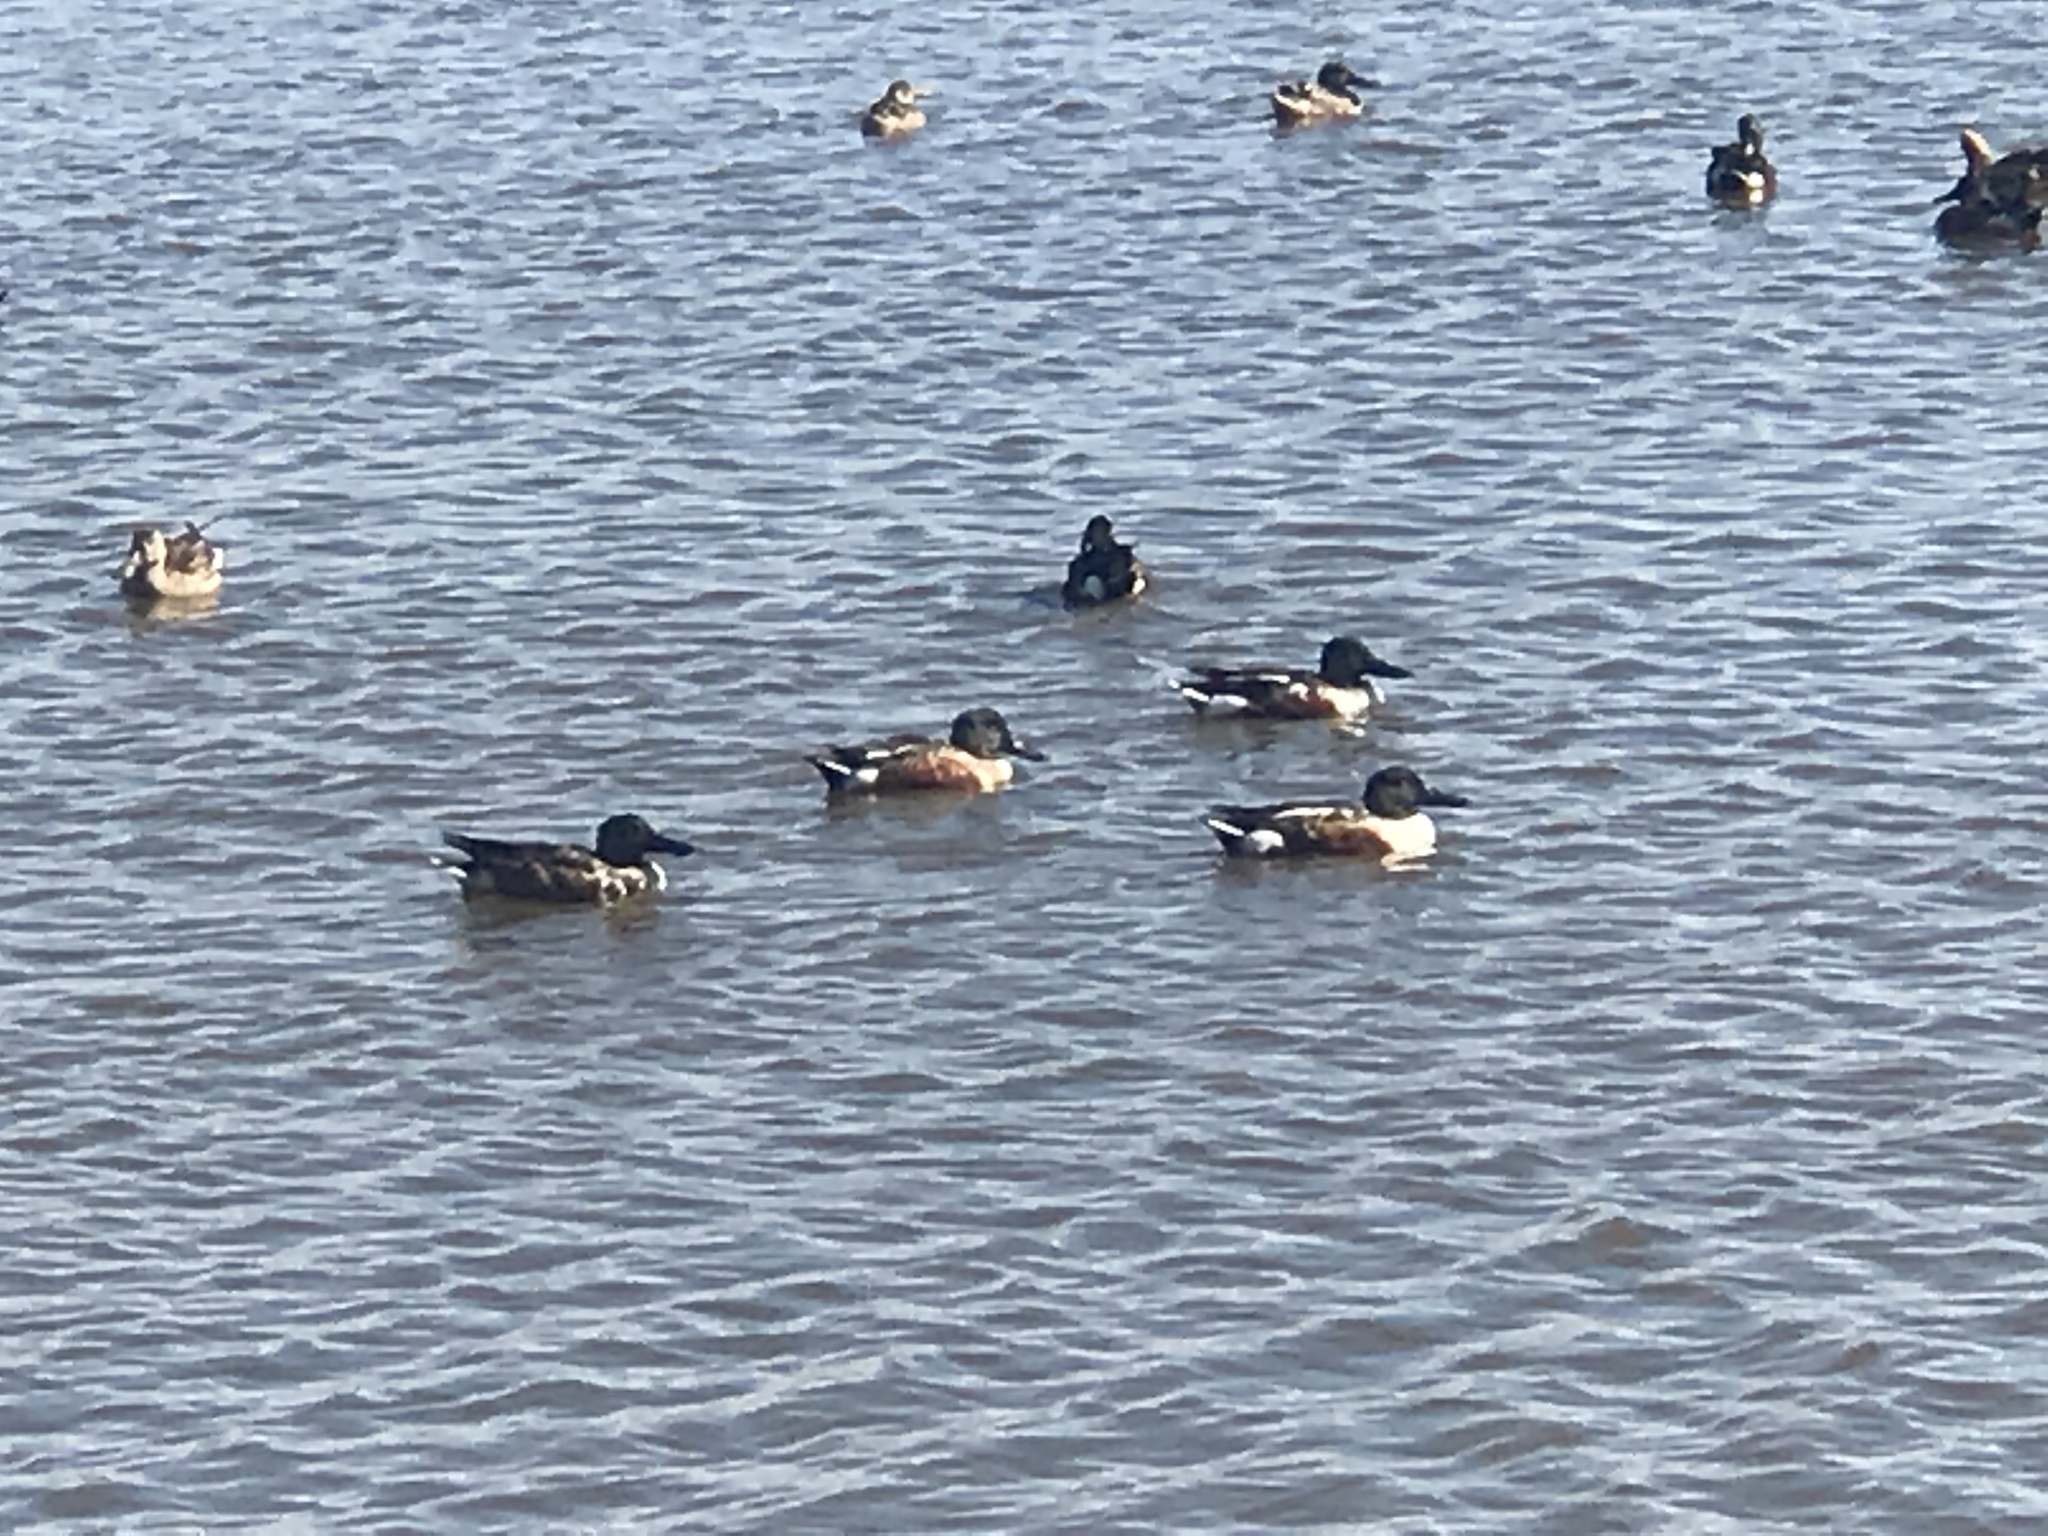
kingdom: Animalia
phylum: Chordata
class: Aves
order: Anseriformes
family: Anatidae
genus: Spatula
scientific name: Spatula clypeata
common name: Northern shoveler
